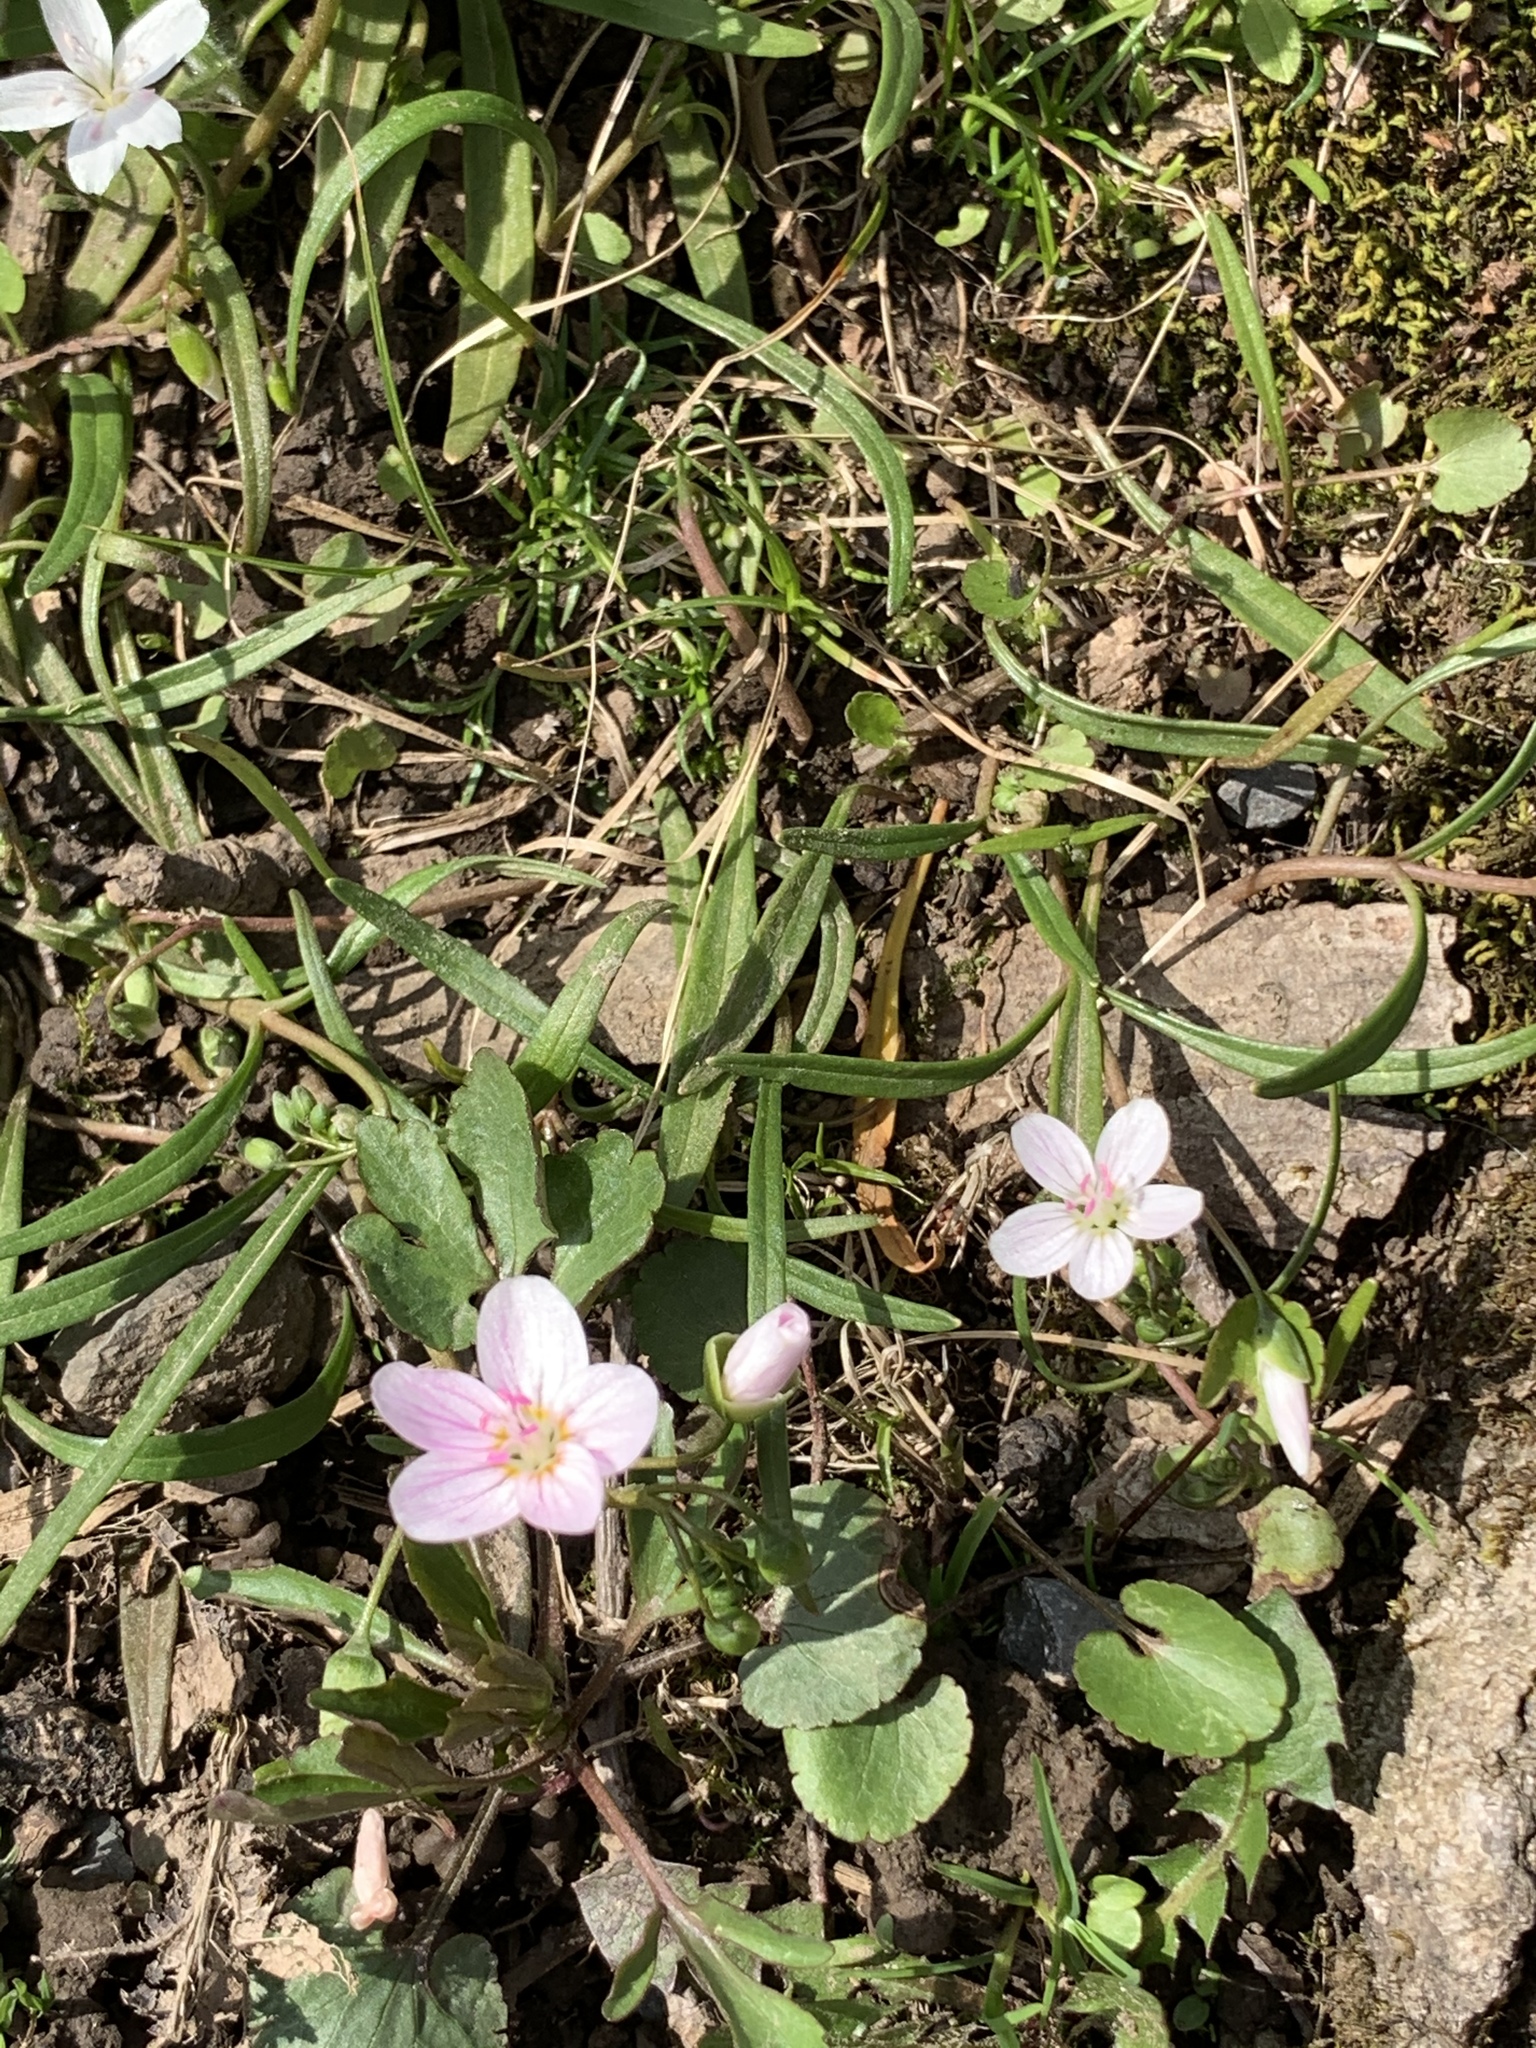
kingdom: Plantae
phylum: Tracheophyta
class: Magnoliopsida
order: Caryophyllales
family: Montiaceae
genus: Claytonia
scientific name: Claytonia virginica
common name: Virginia springbeauty
